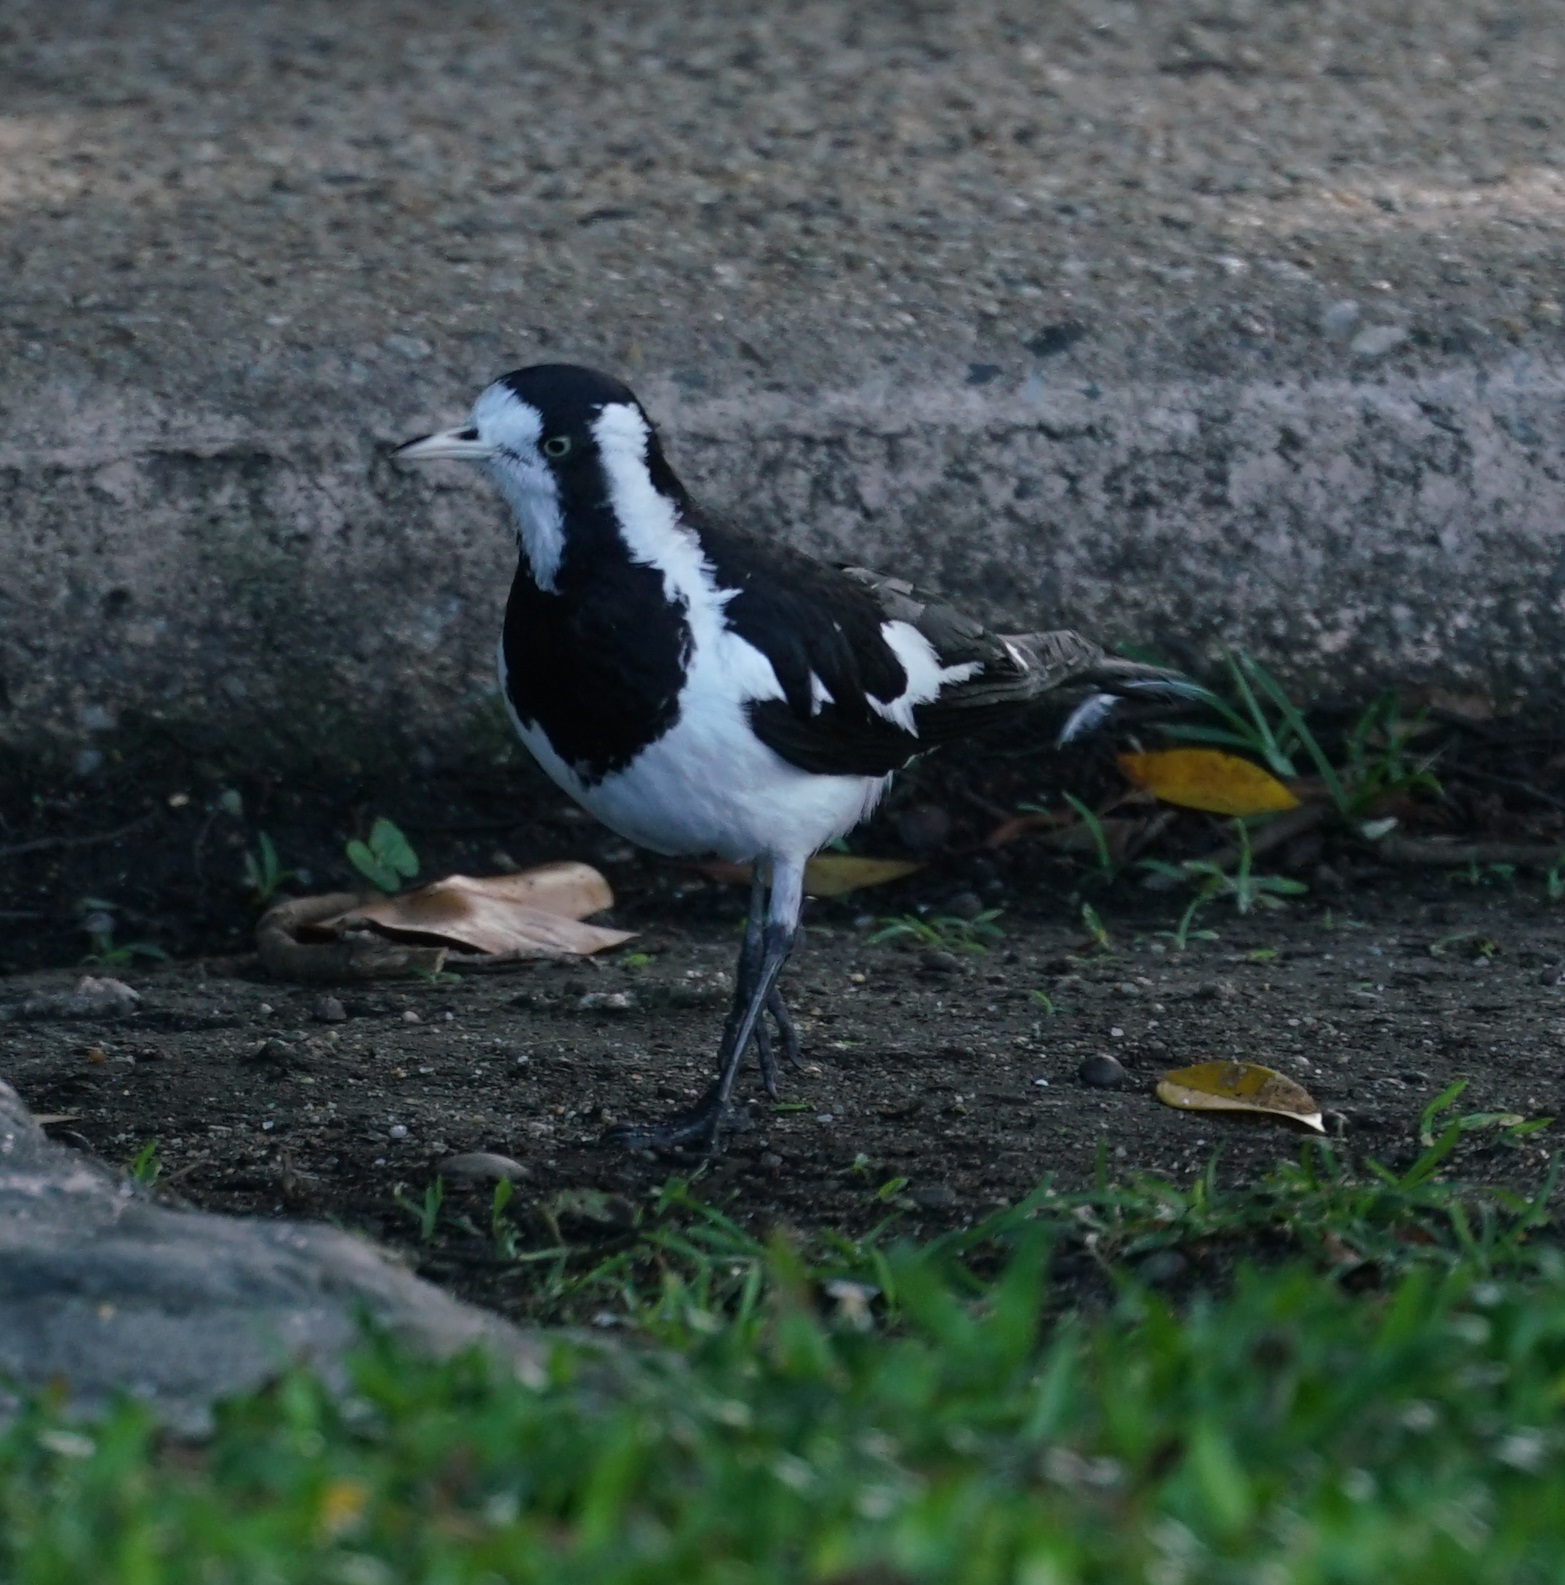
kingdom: Animalia
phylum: Chordata
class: Aves
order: Passeriformes
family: Monarchidae
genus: Grallina
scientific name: Grallina cyanoleuca
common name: Magpie-lark
